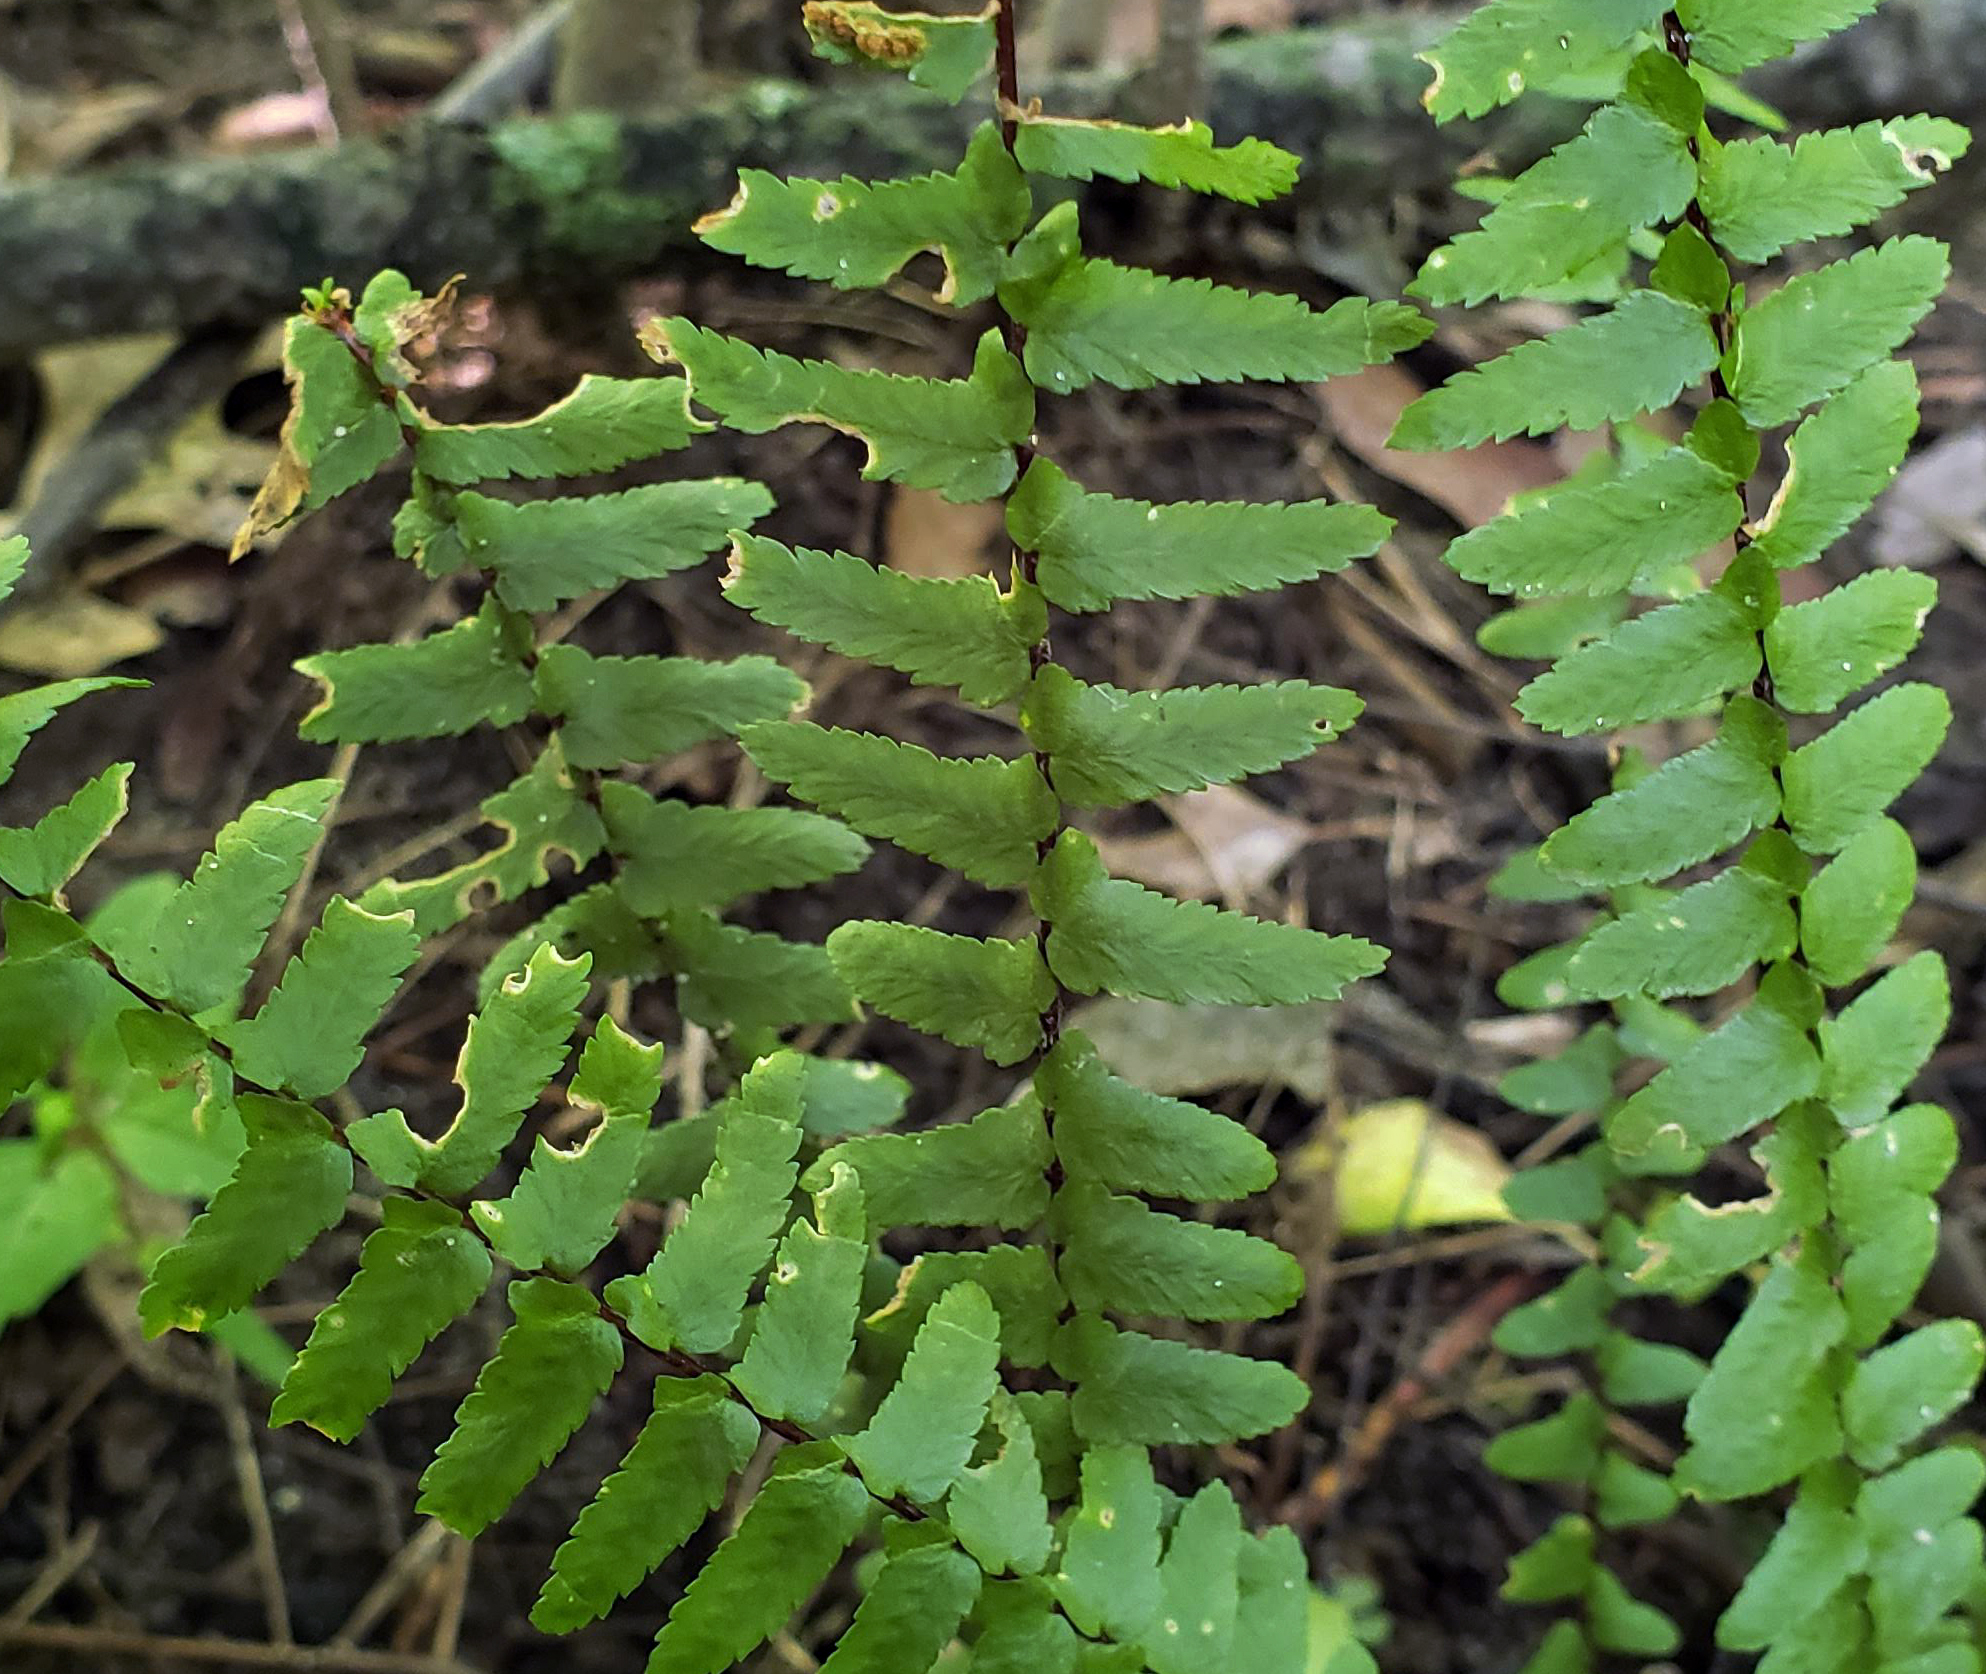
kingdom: Plantae
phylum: Tracheophyta
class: Polypodiopsida
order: Polypodiales
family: Aspleniaceae
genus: Asplenium
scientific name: Asplenium platyneuron
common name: Ebony spleenwort
